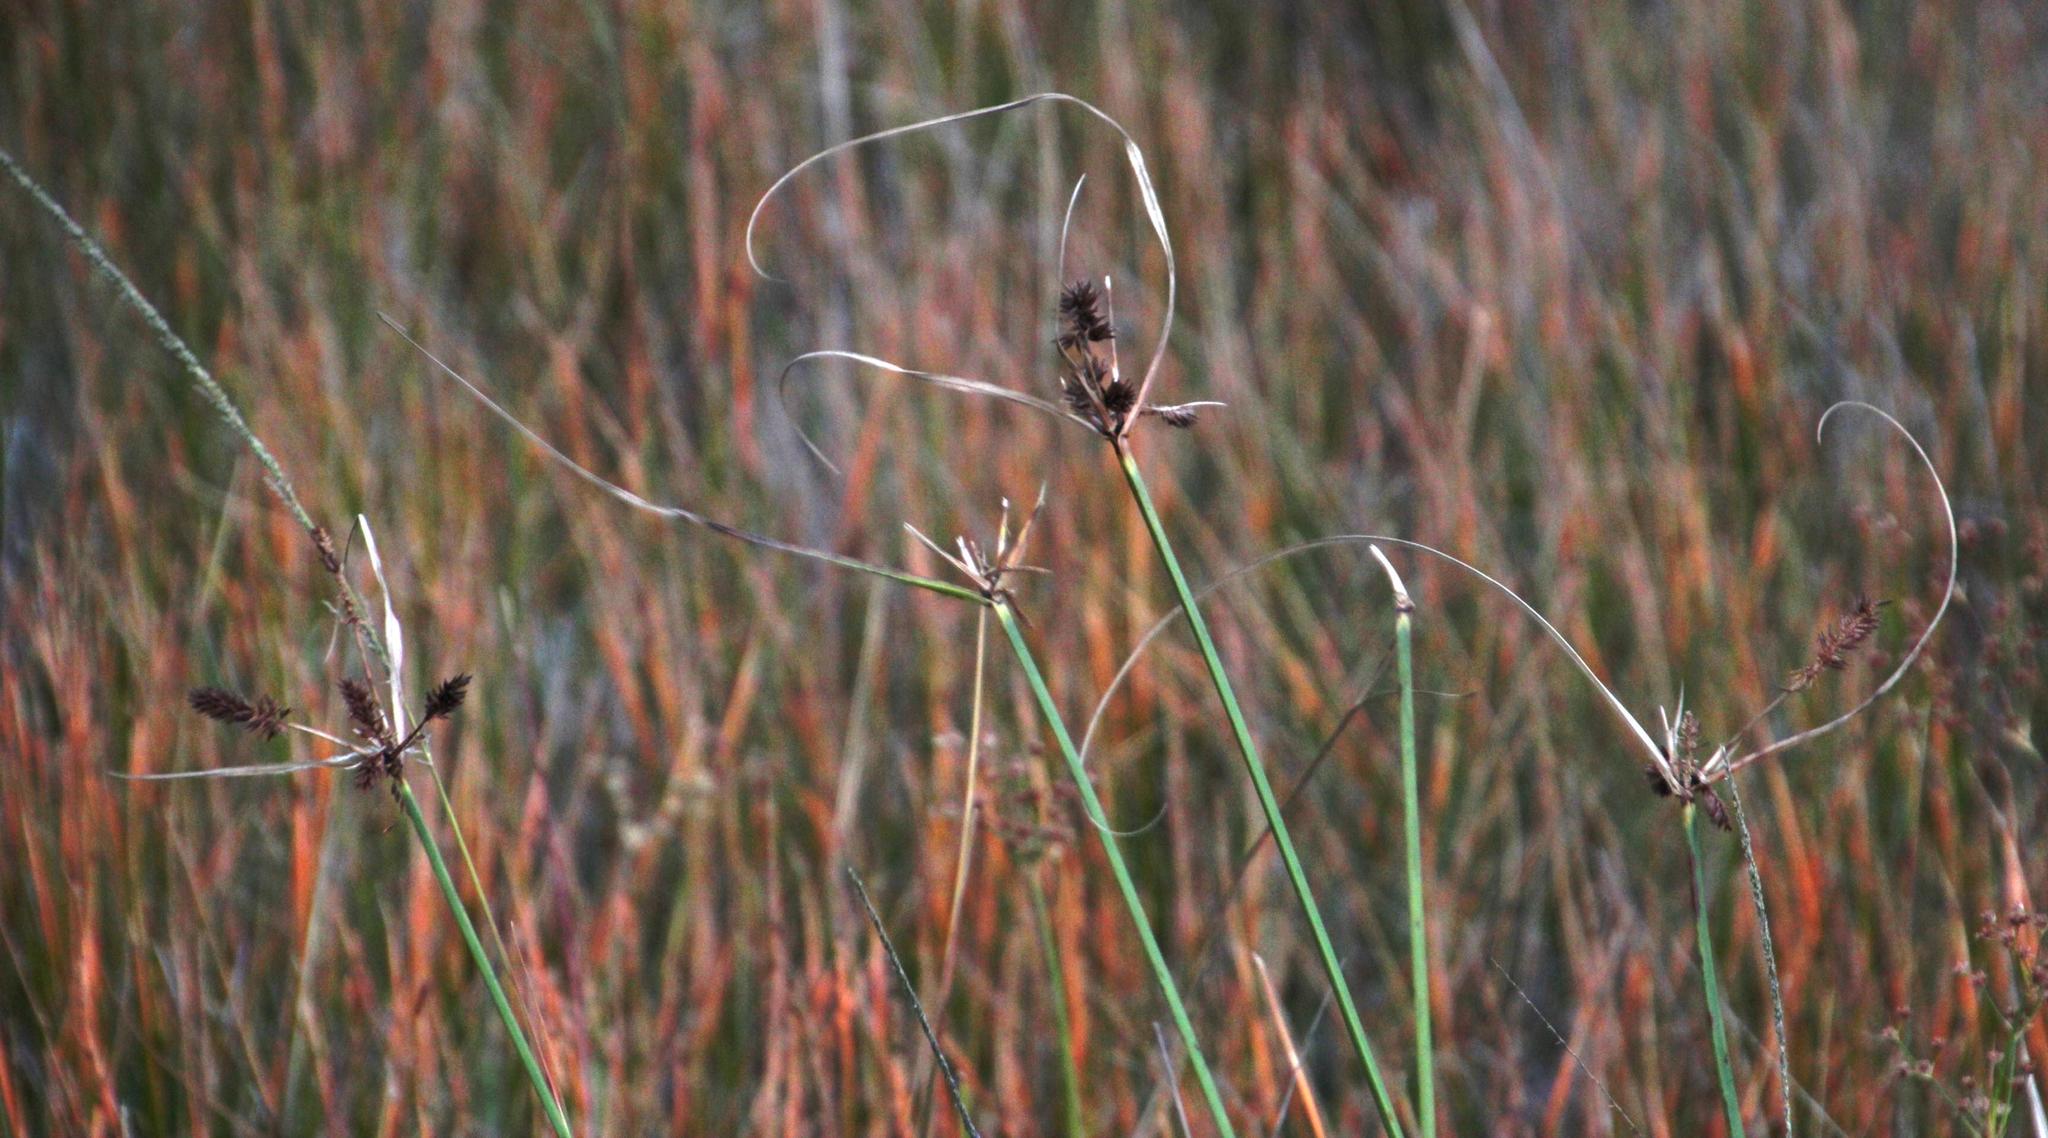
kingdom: Plantae
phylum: Tracheophyta
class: Liliopsida
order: Poales
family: Cyperaceae
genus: Cyperus
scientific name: Cyperus thunbergii
